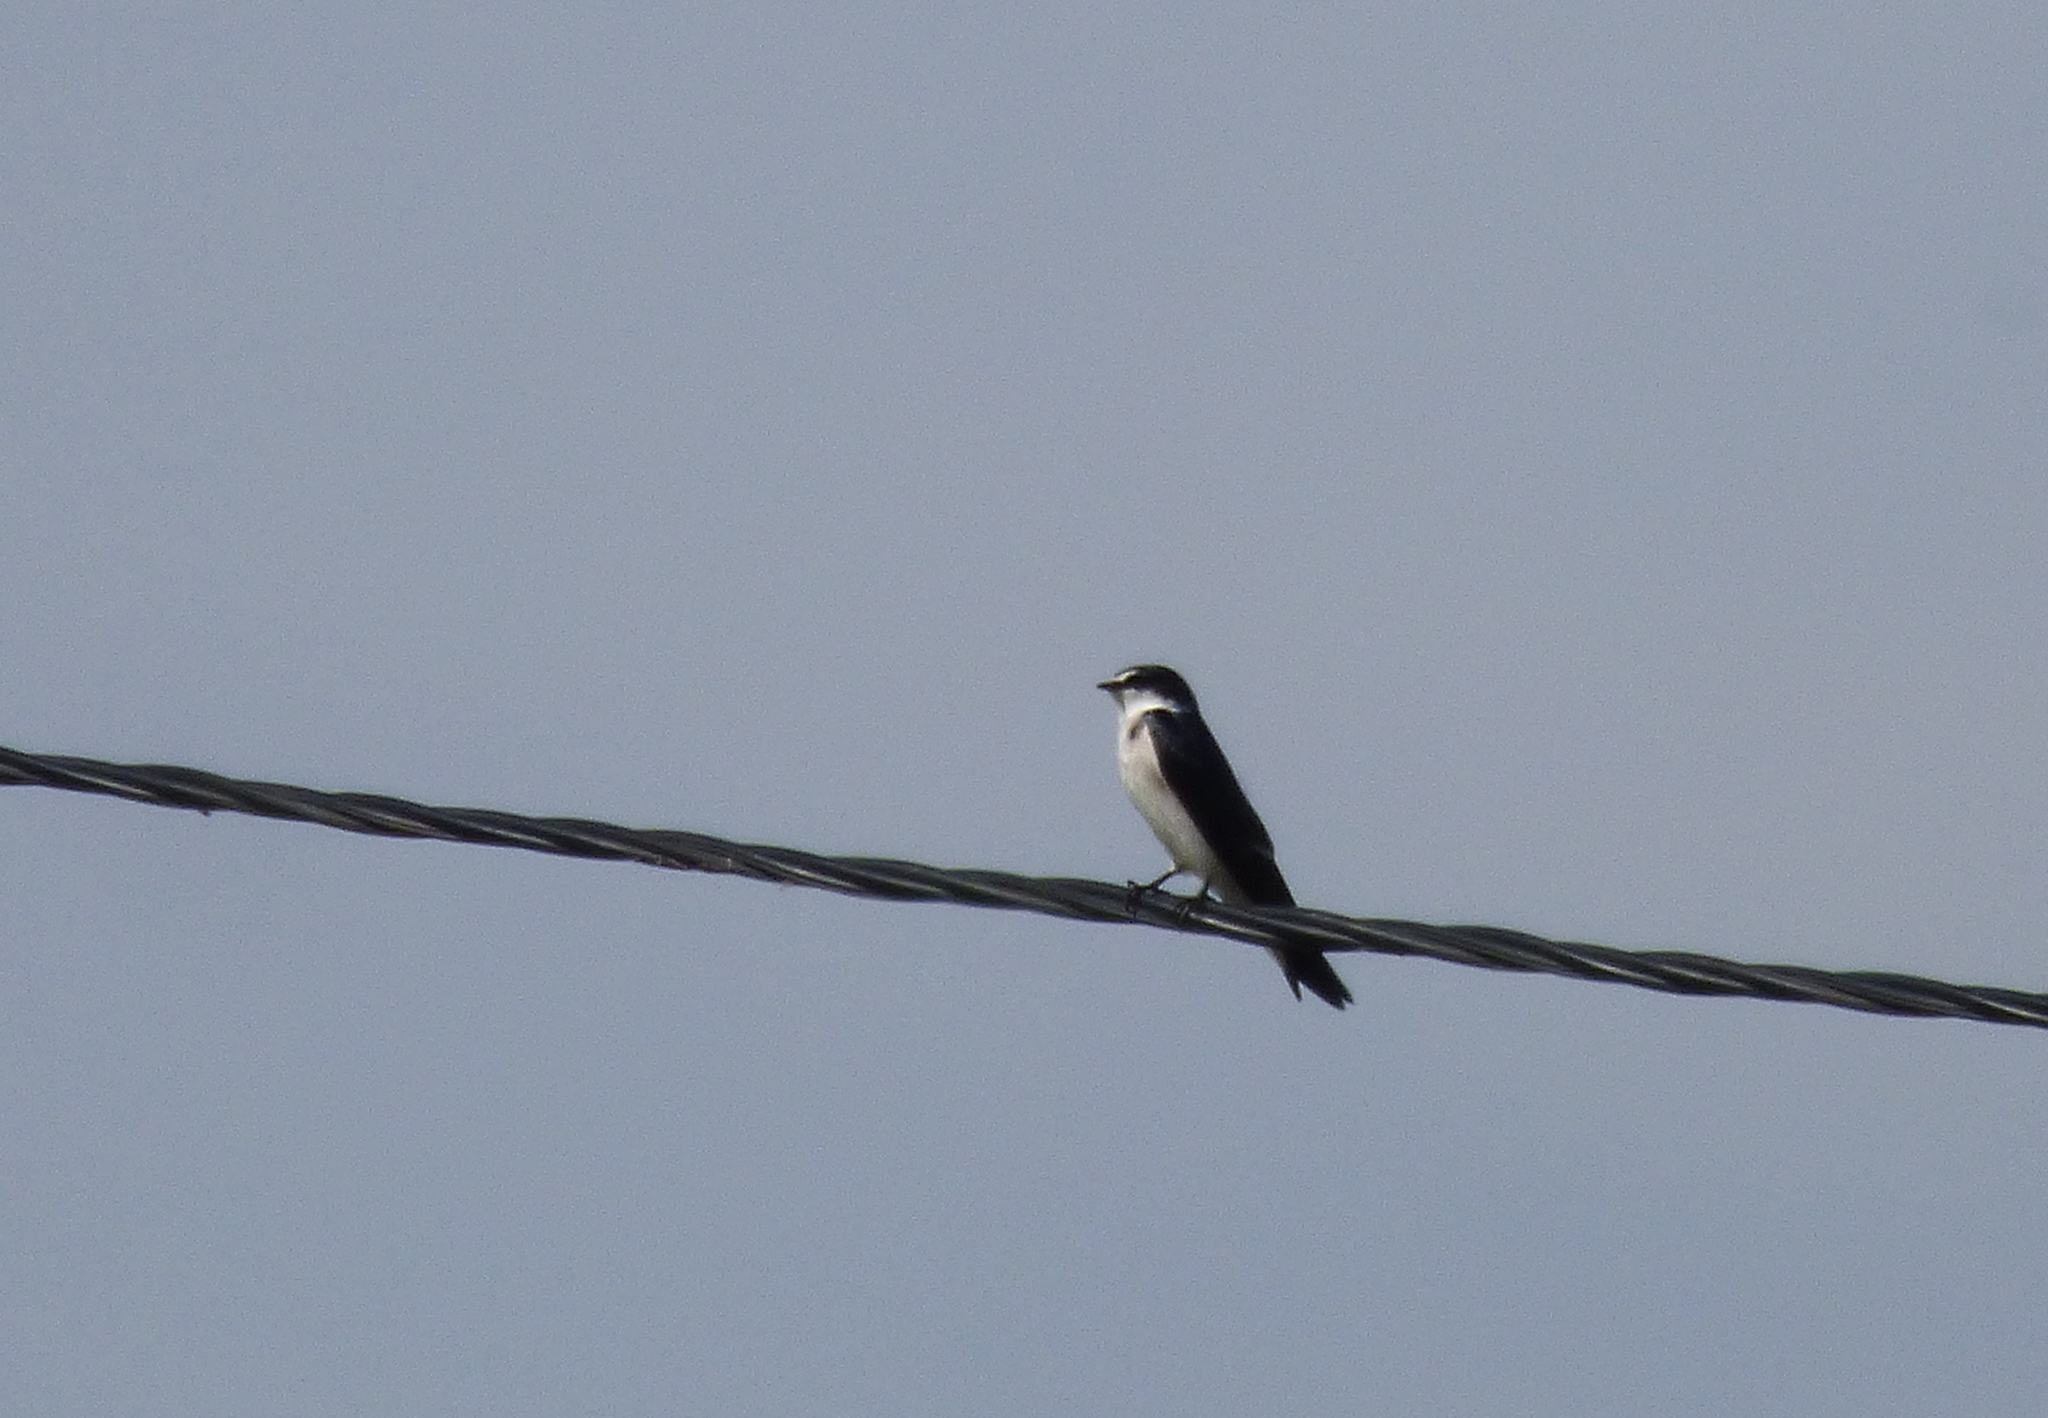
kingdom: Animalia
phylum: Chordata
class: Aves
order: Passeriformes
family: Hirundinidae
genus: Tachycineta
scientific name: Tachycineta leucorrhoa
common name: White-rumped swallow
